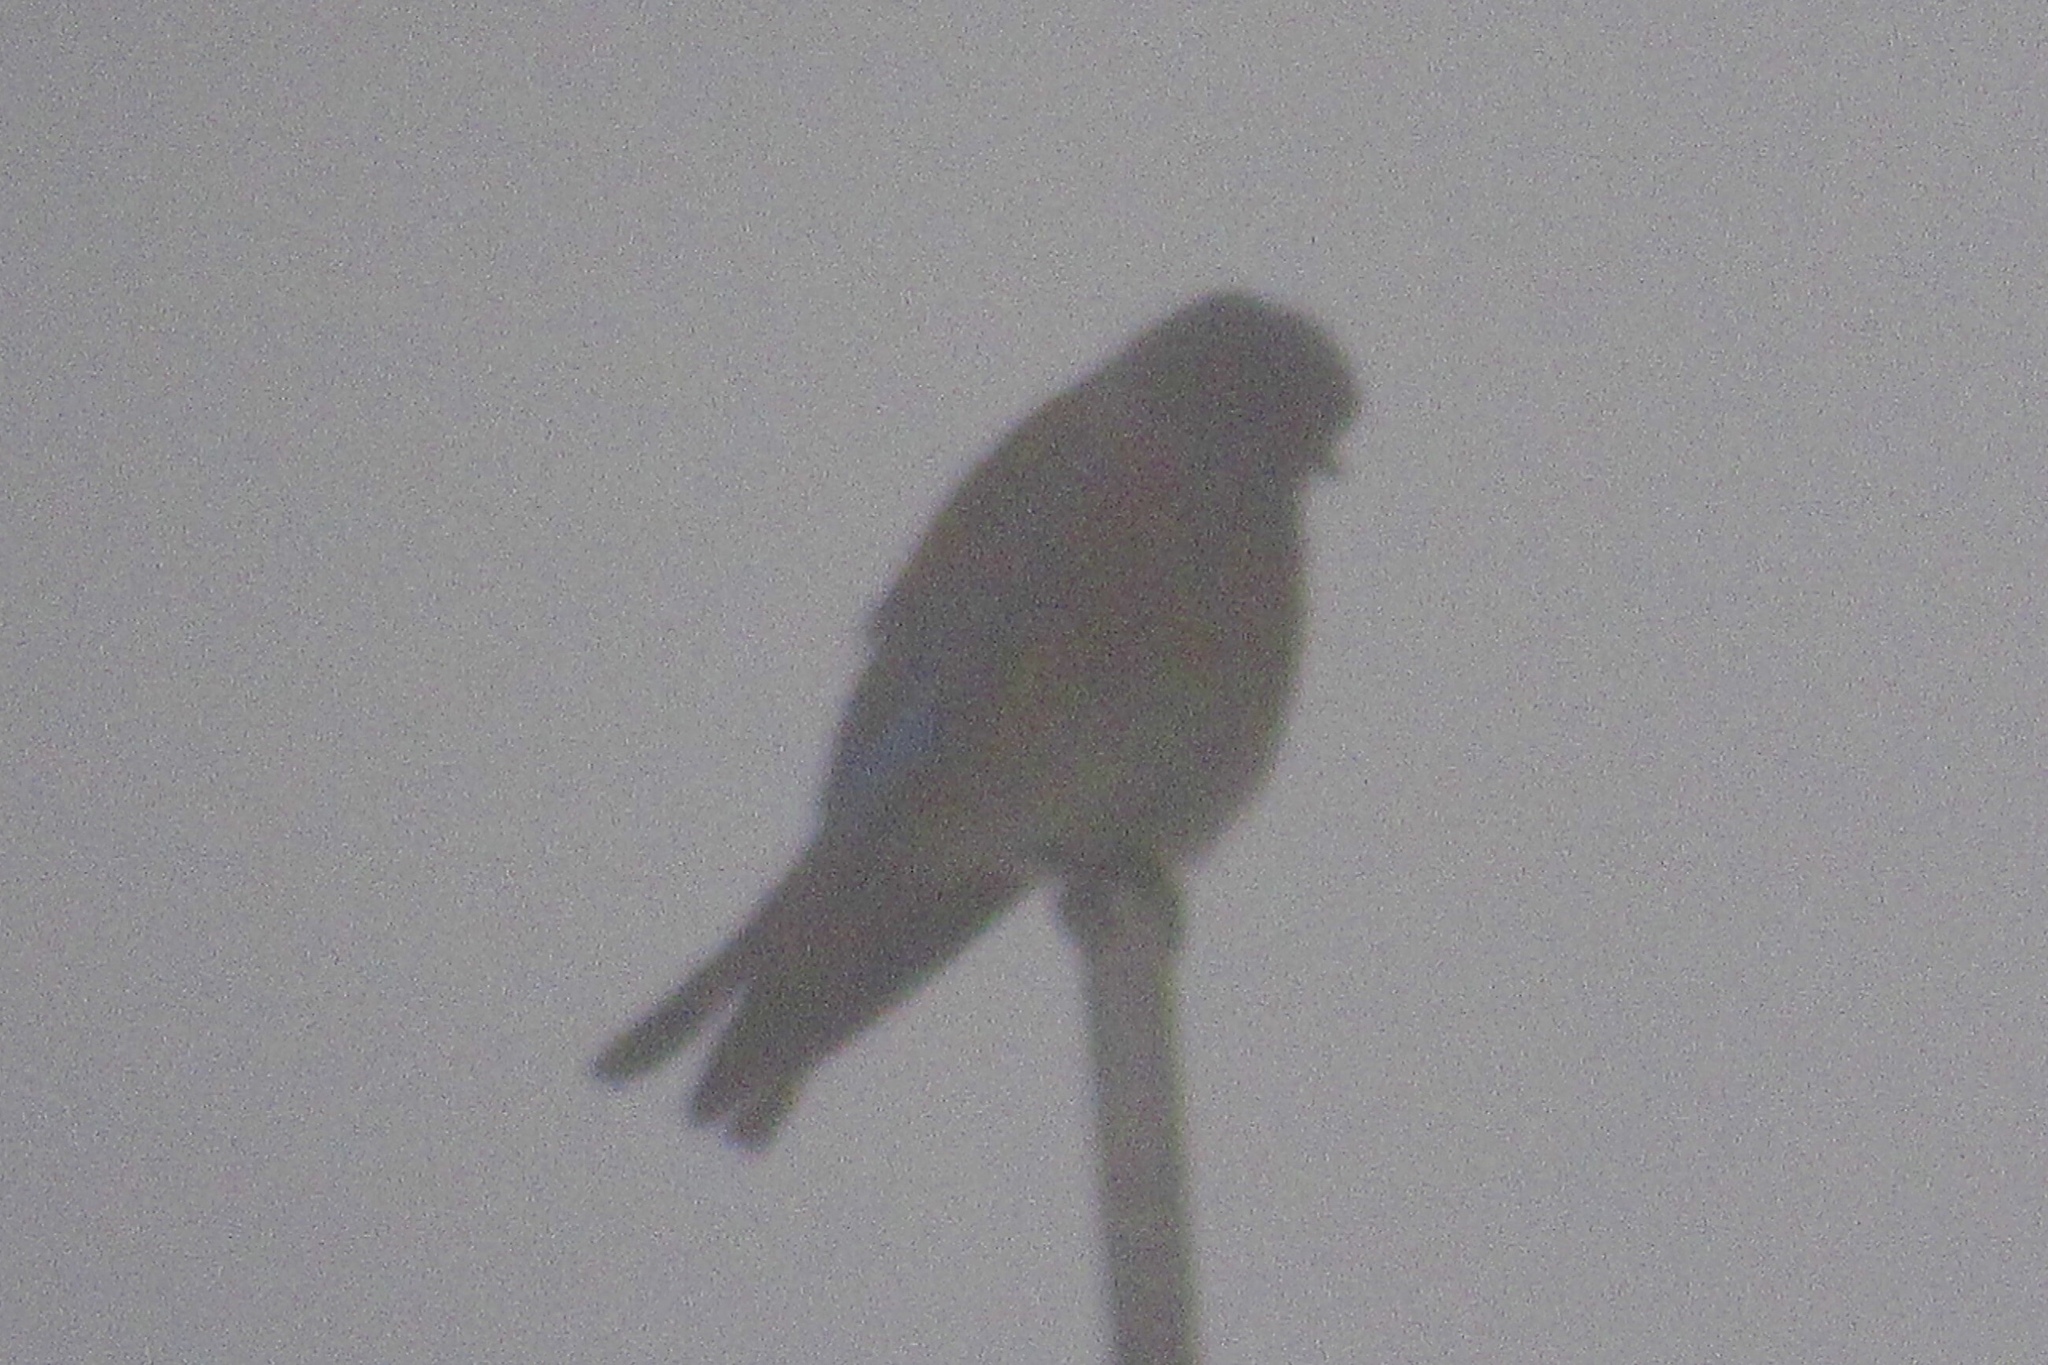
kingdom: Animalia
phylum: Chordata
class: Aves
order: Passeriformes
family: Turdidae
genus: Sialia
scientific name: Sialia mexicana
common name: Western bluebird
